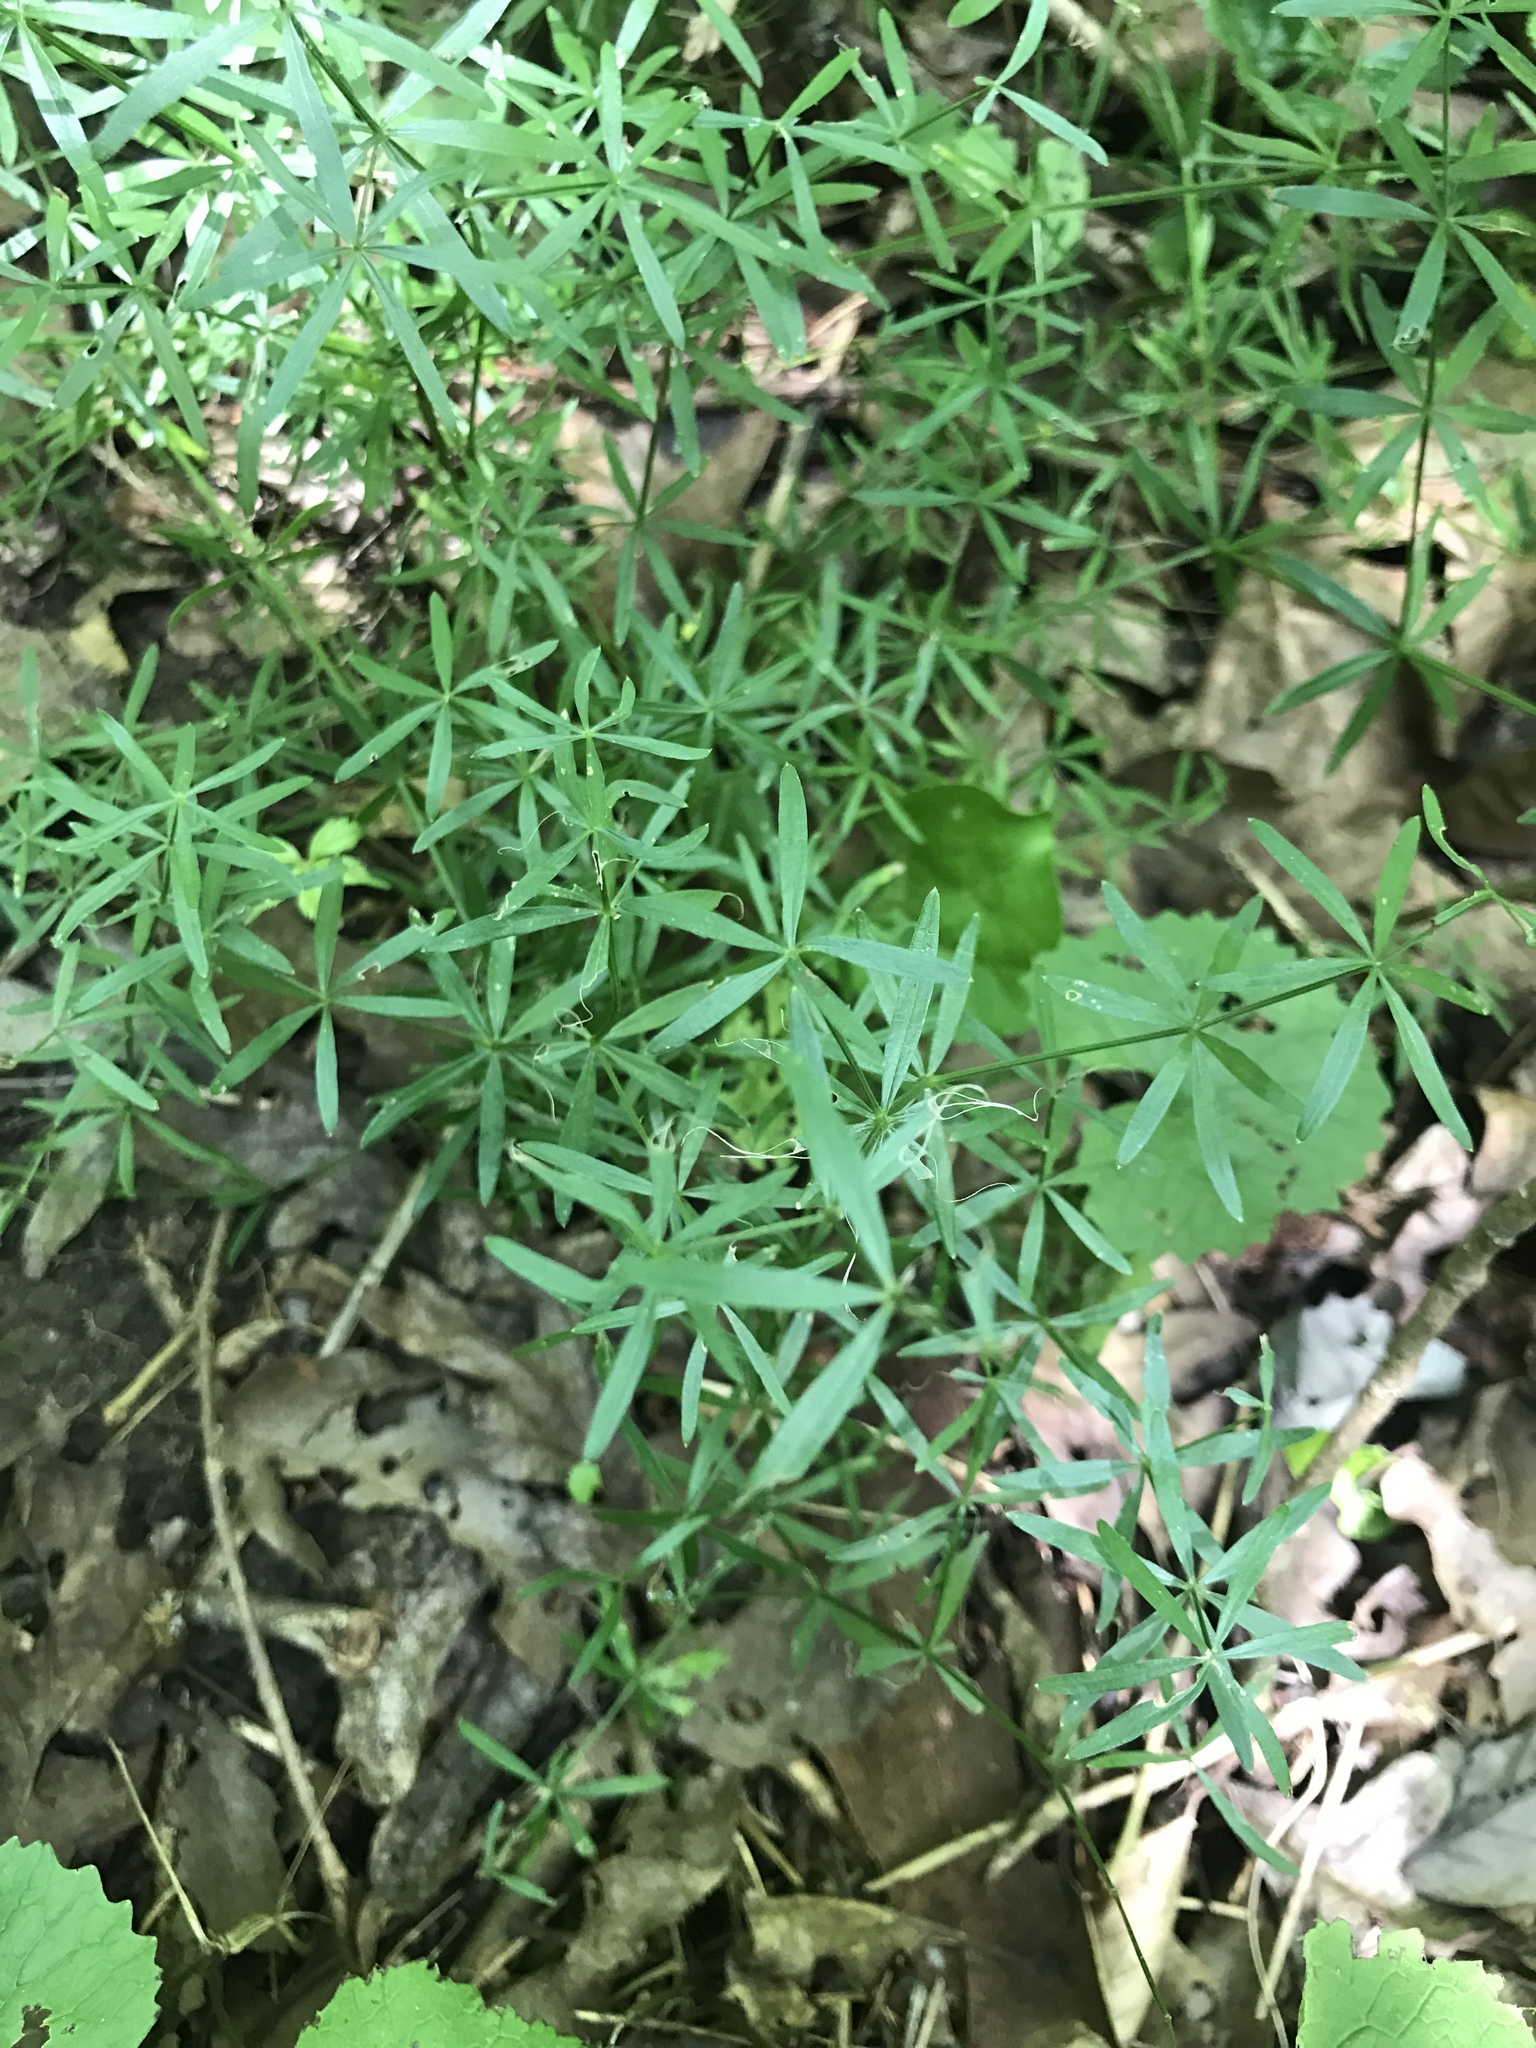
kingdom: Plantae
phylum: Tracheophyta
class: Magnoliopsida
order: Gentianales
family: Rubiaceae
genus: Galium
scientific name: Galium concinnum
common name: Shining bedstraw
